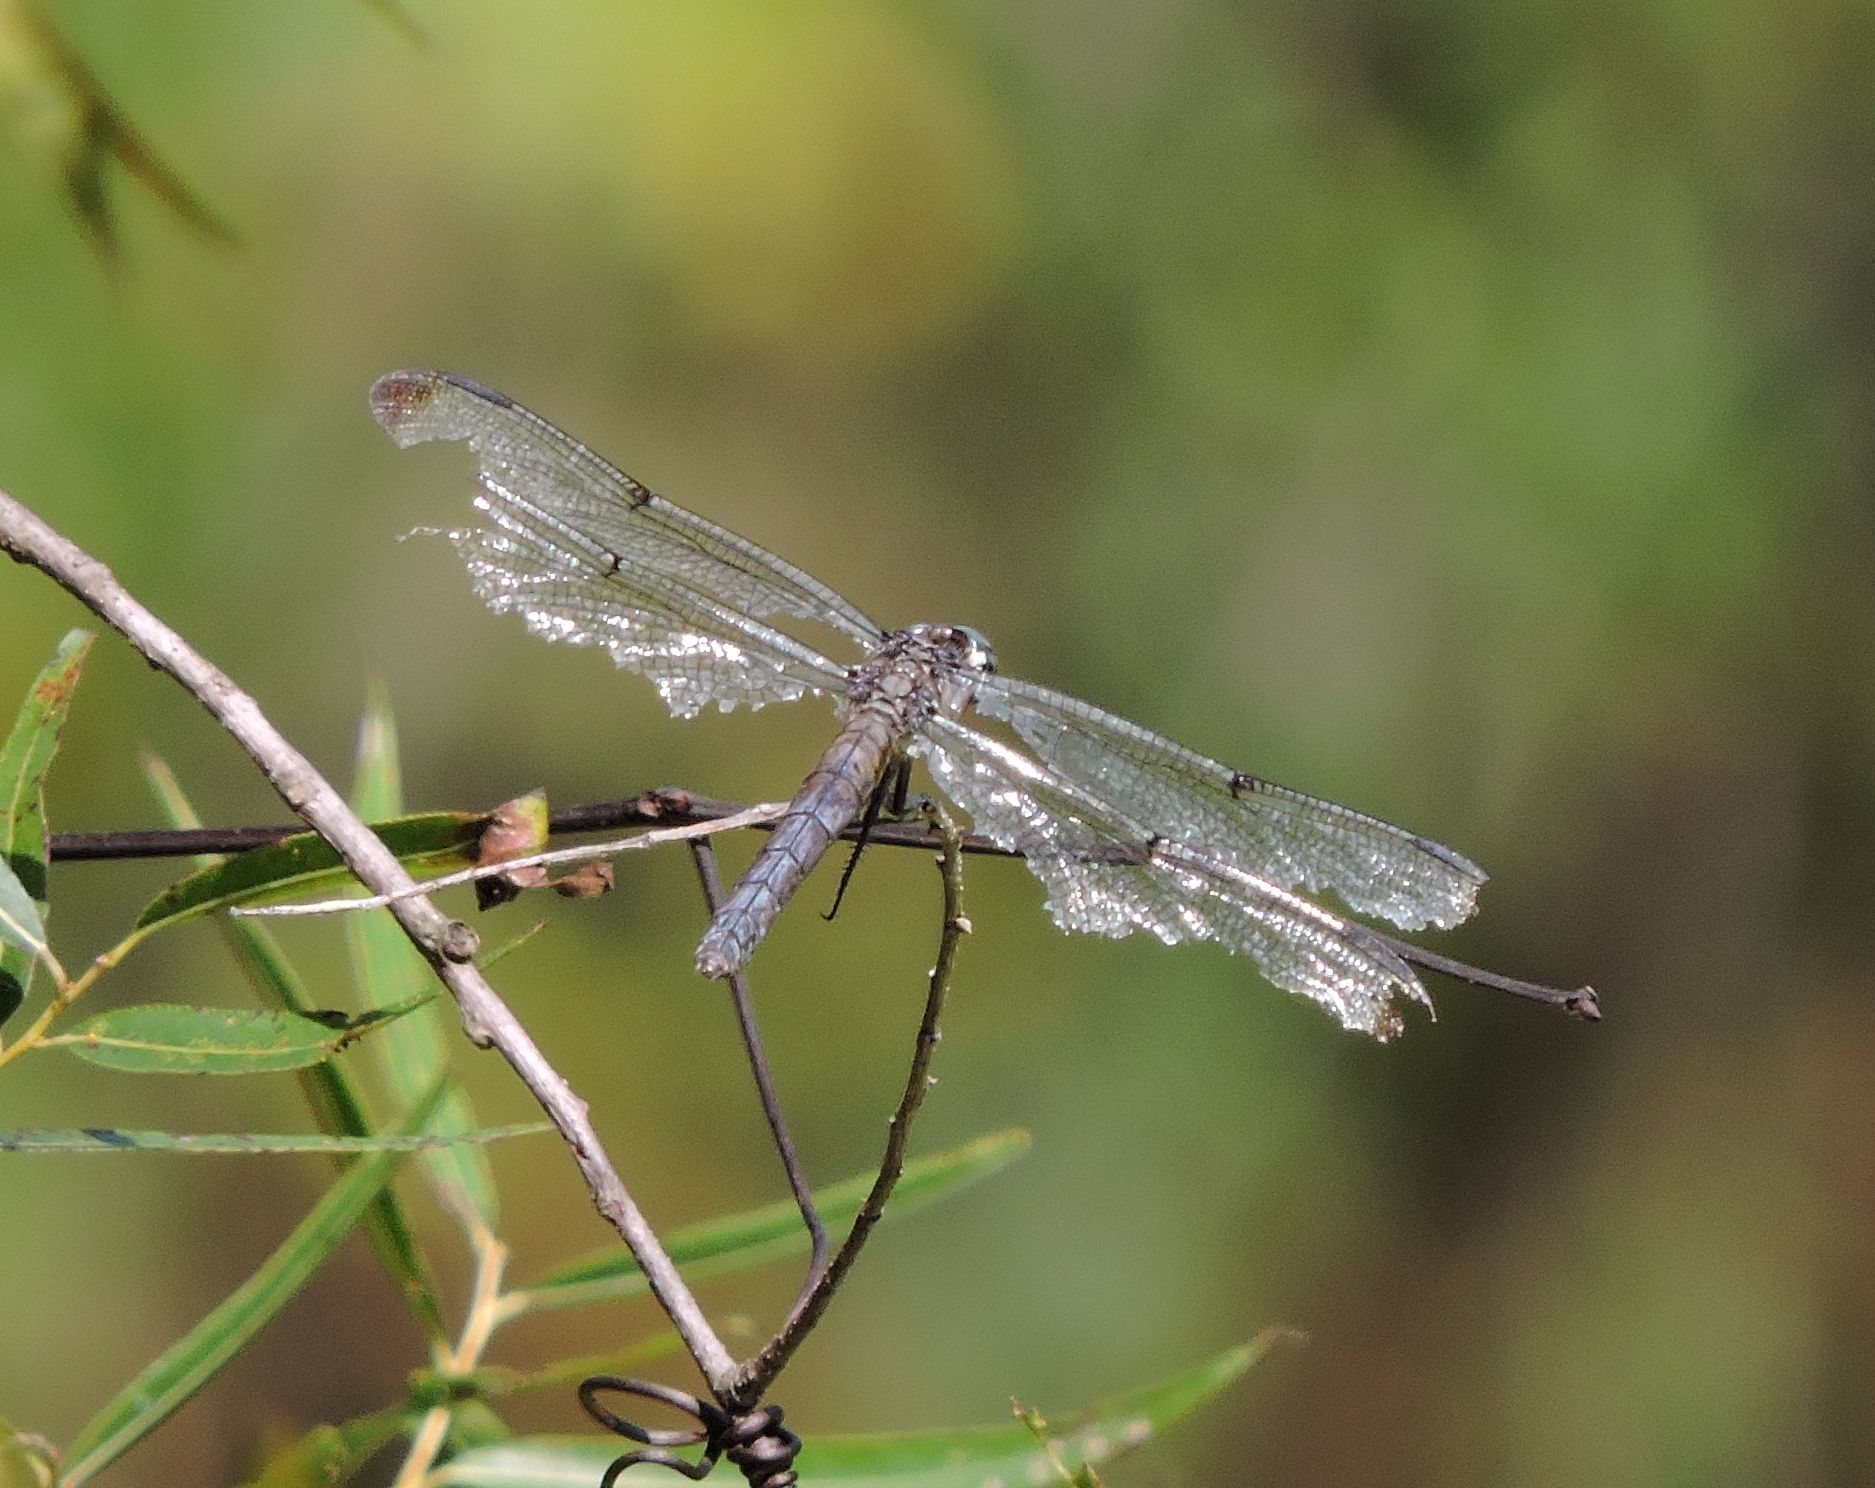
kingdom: Animalia
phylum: Arthropoda
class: Insecta
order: Odonata
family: Libellulidae
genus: Libellula
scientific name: Libellula vibrans
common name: Great blue skimmer
